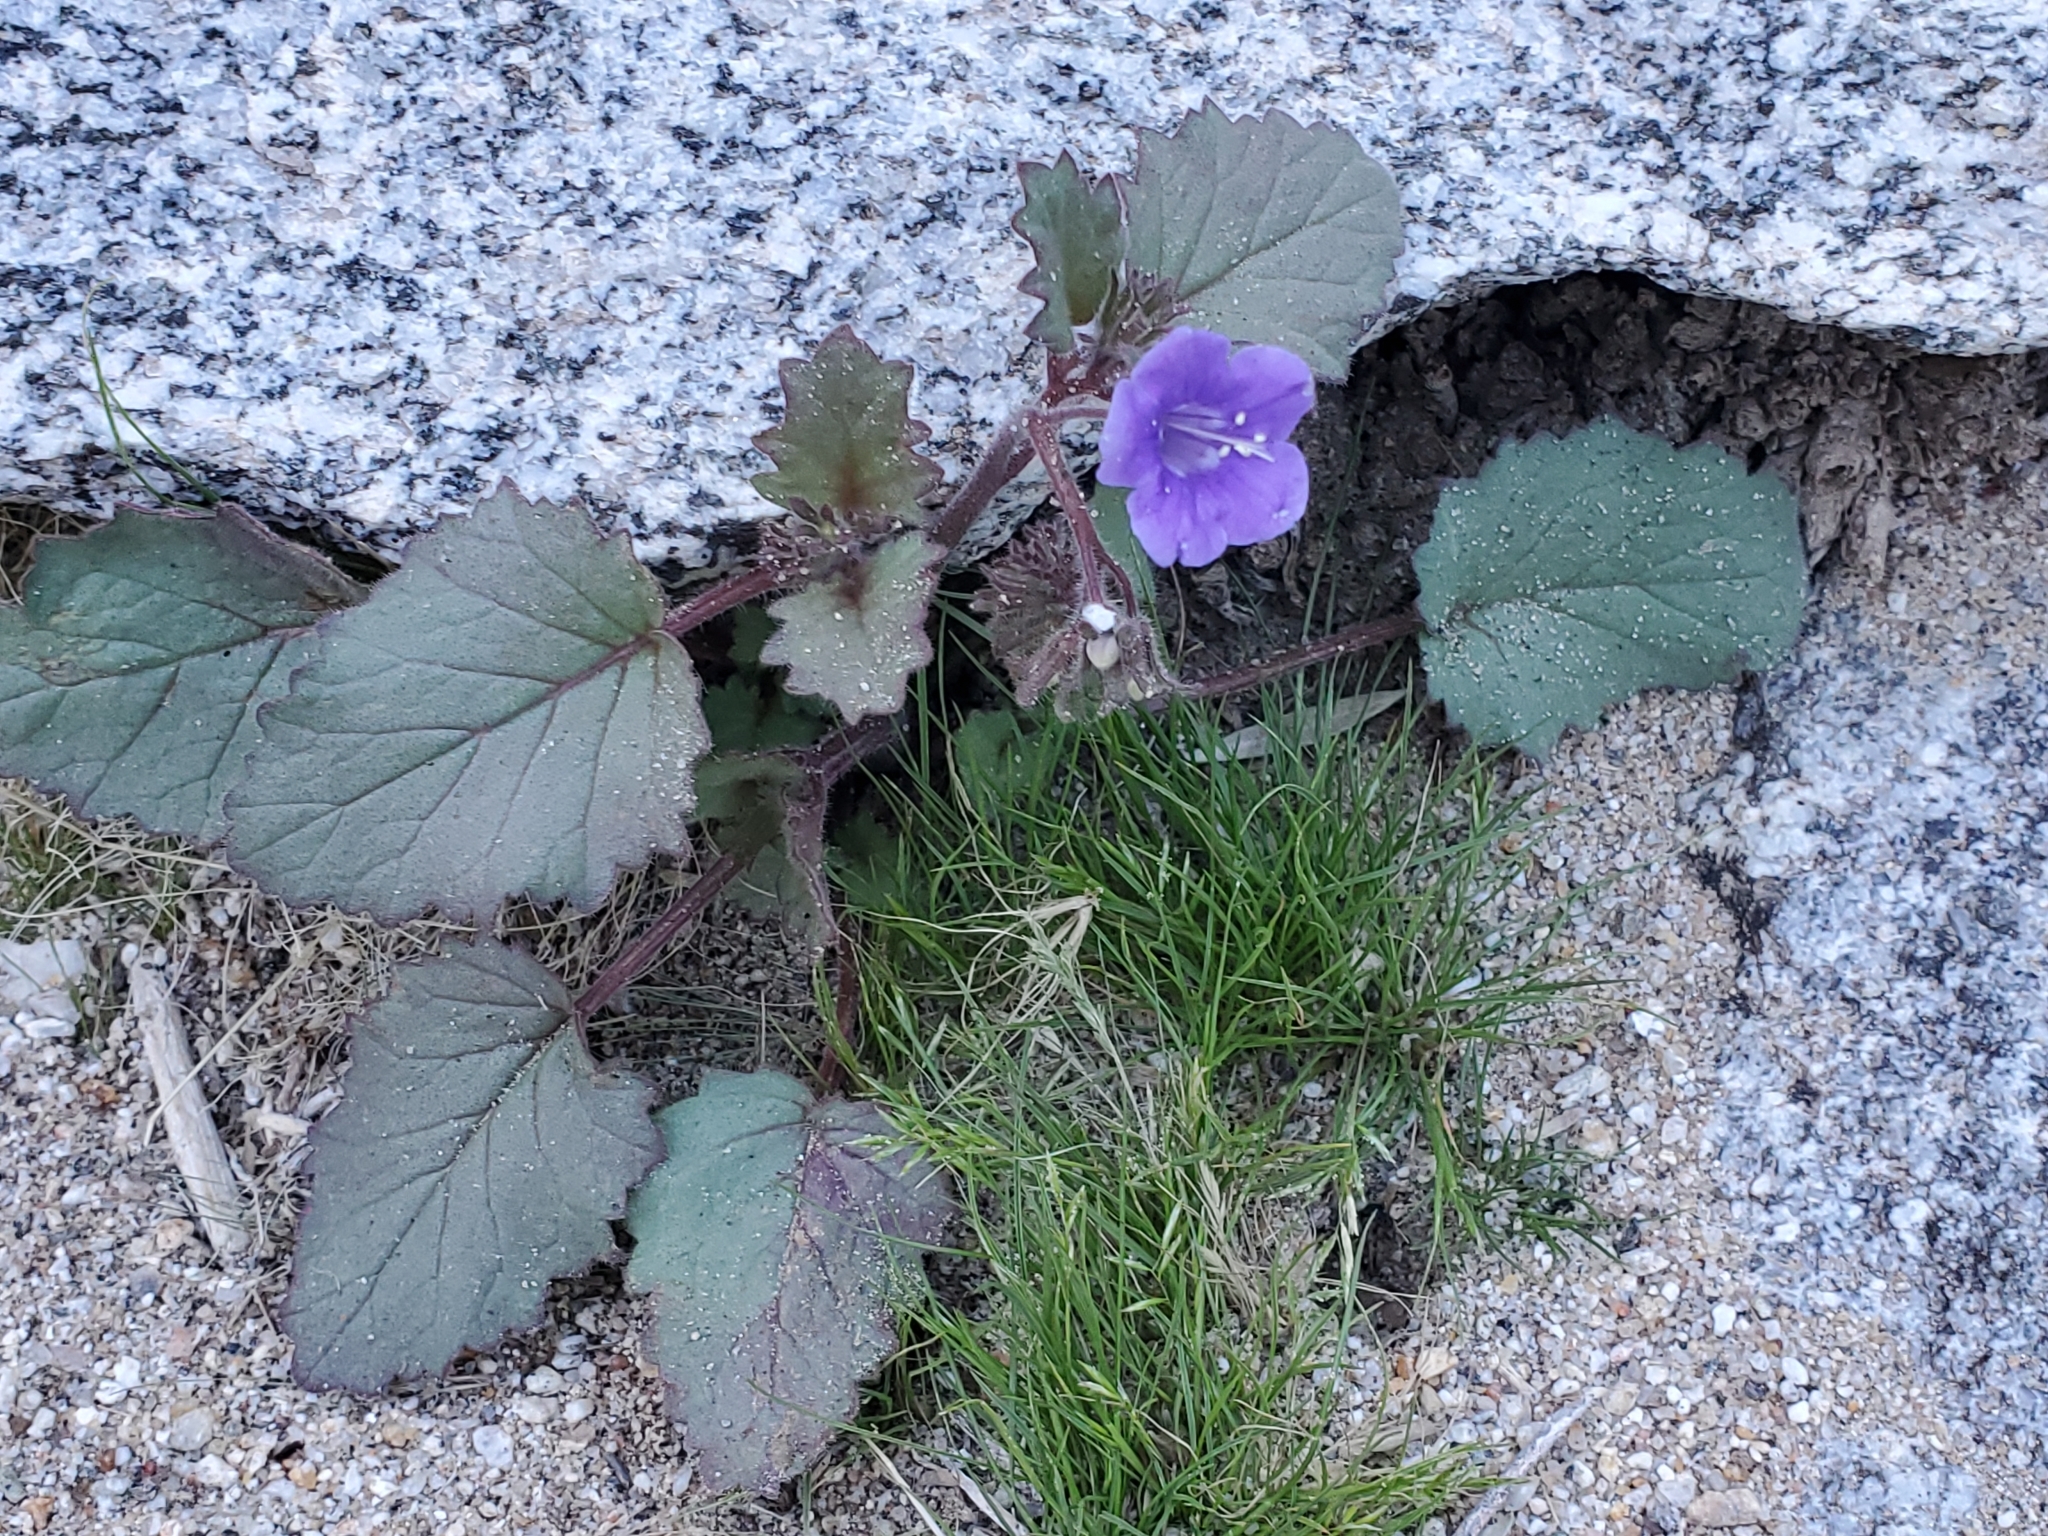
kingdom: Plantae
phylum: Tracheophyta
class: Magnoliopsida
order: Boraginales
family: Hydrophyllaceae
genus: Phacelia
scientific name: Phacelia minor
